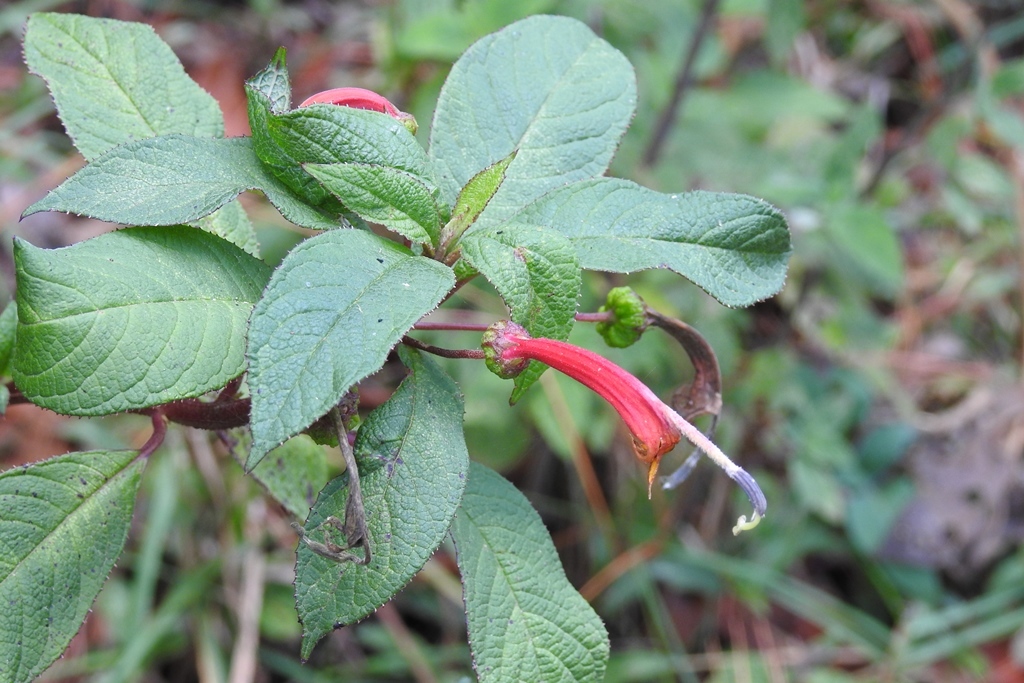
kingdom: Plantae
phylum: Tracheophyta
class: Magnoliopsida
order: Asterales
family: Campanulaceae
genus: Centropogon
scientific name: Centropogon grandidentatus
